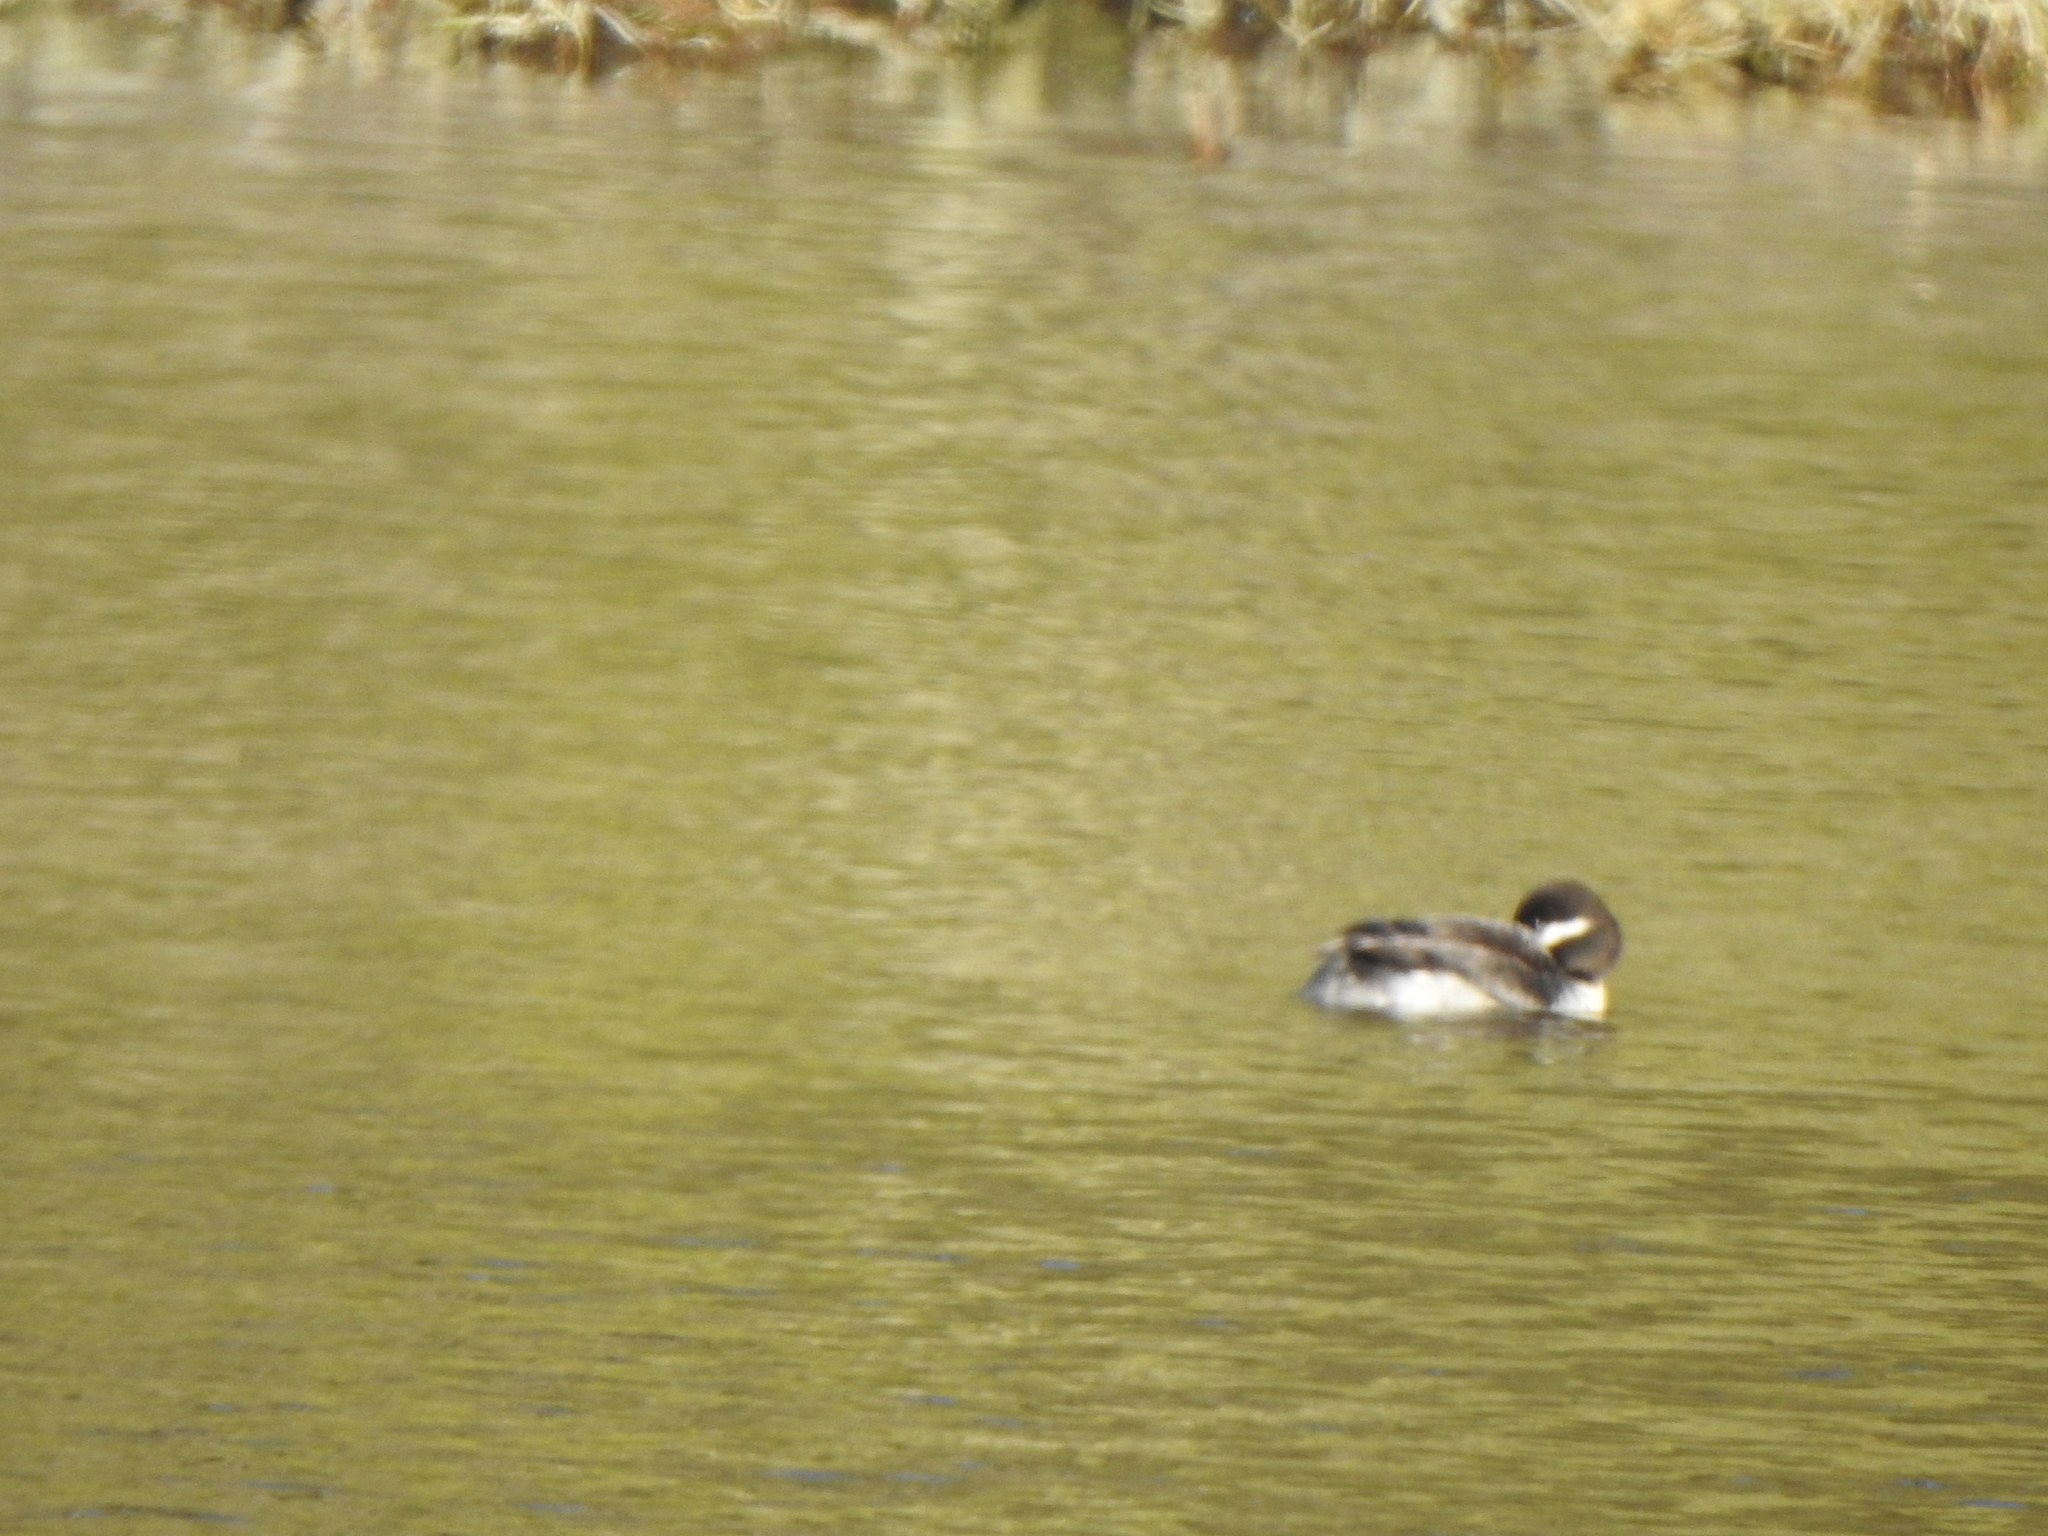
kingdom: Animalia
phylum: Chordata
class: Aves
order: Anseriformes
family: Anatidae
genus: Bucephala
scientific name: Bucephala albeola
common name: Bufflehead
